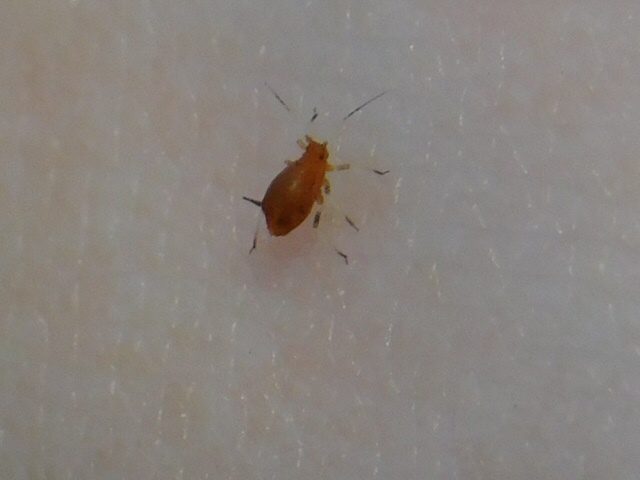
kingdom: Animalia
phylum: Arthropoda
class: Insecta
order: Hemiptera
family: Aphididae
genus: Hysteroneura
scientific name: Hysteroneura setariae
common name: Rusty plum aphid
